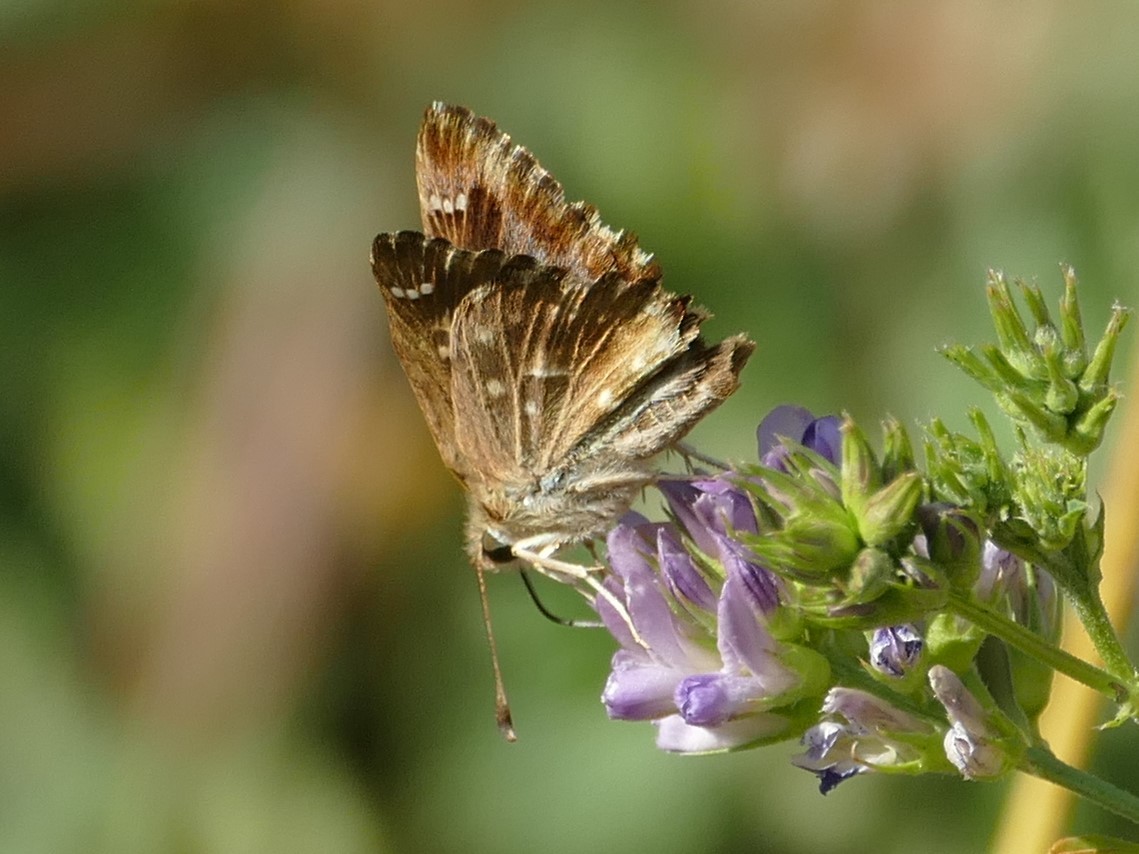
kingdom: Animalia
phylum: Arthropoda
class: Insecta
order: Lepidoptera
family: Hesperiidae
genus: Carcharodus
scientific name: Carcharodus alceae
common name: Mallow skipper
